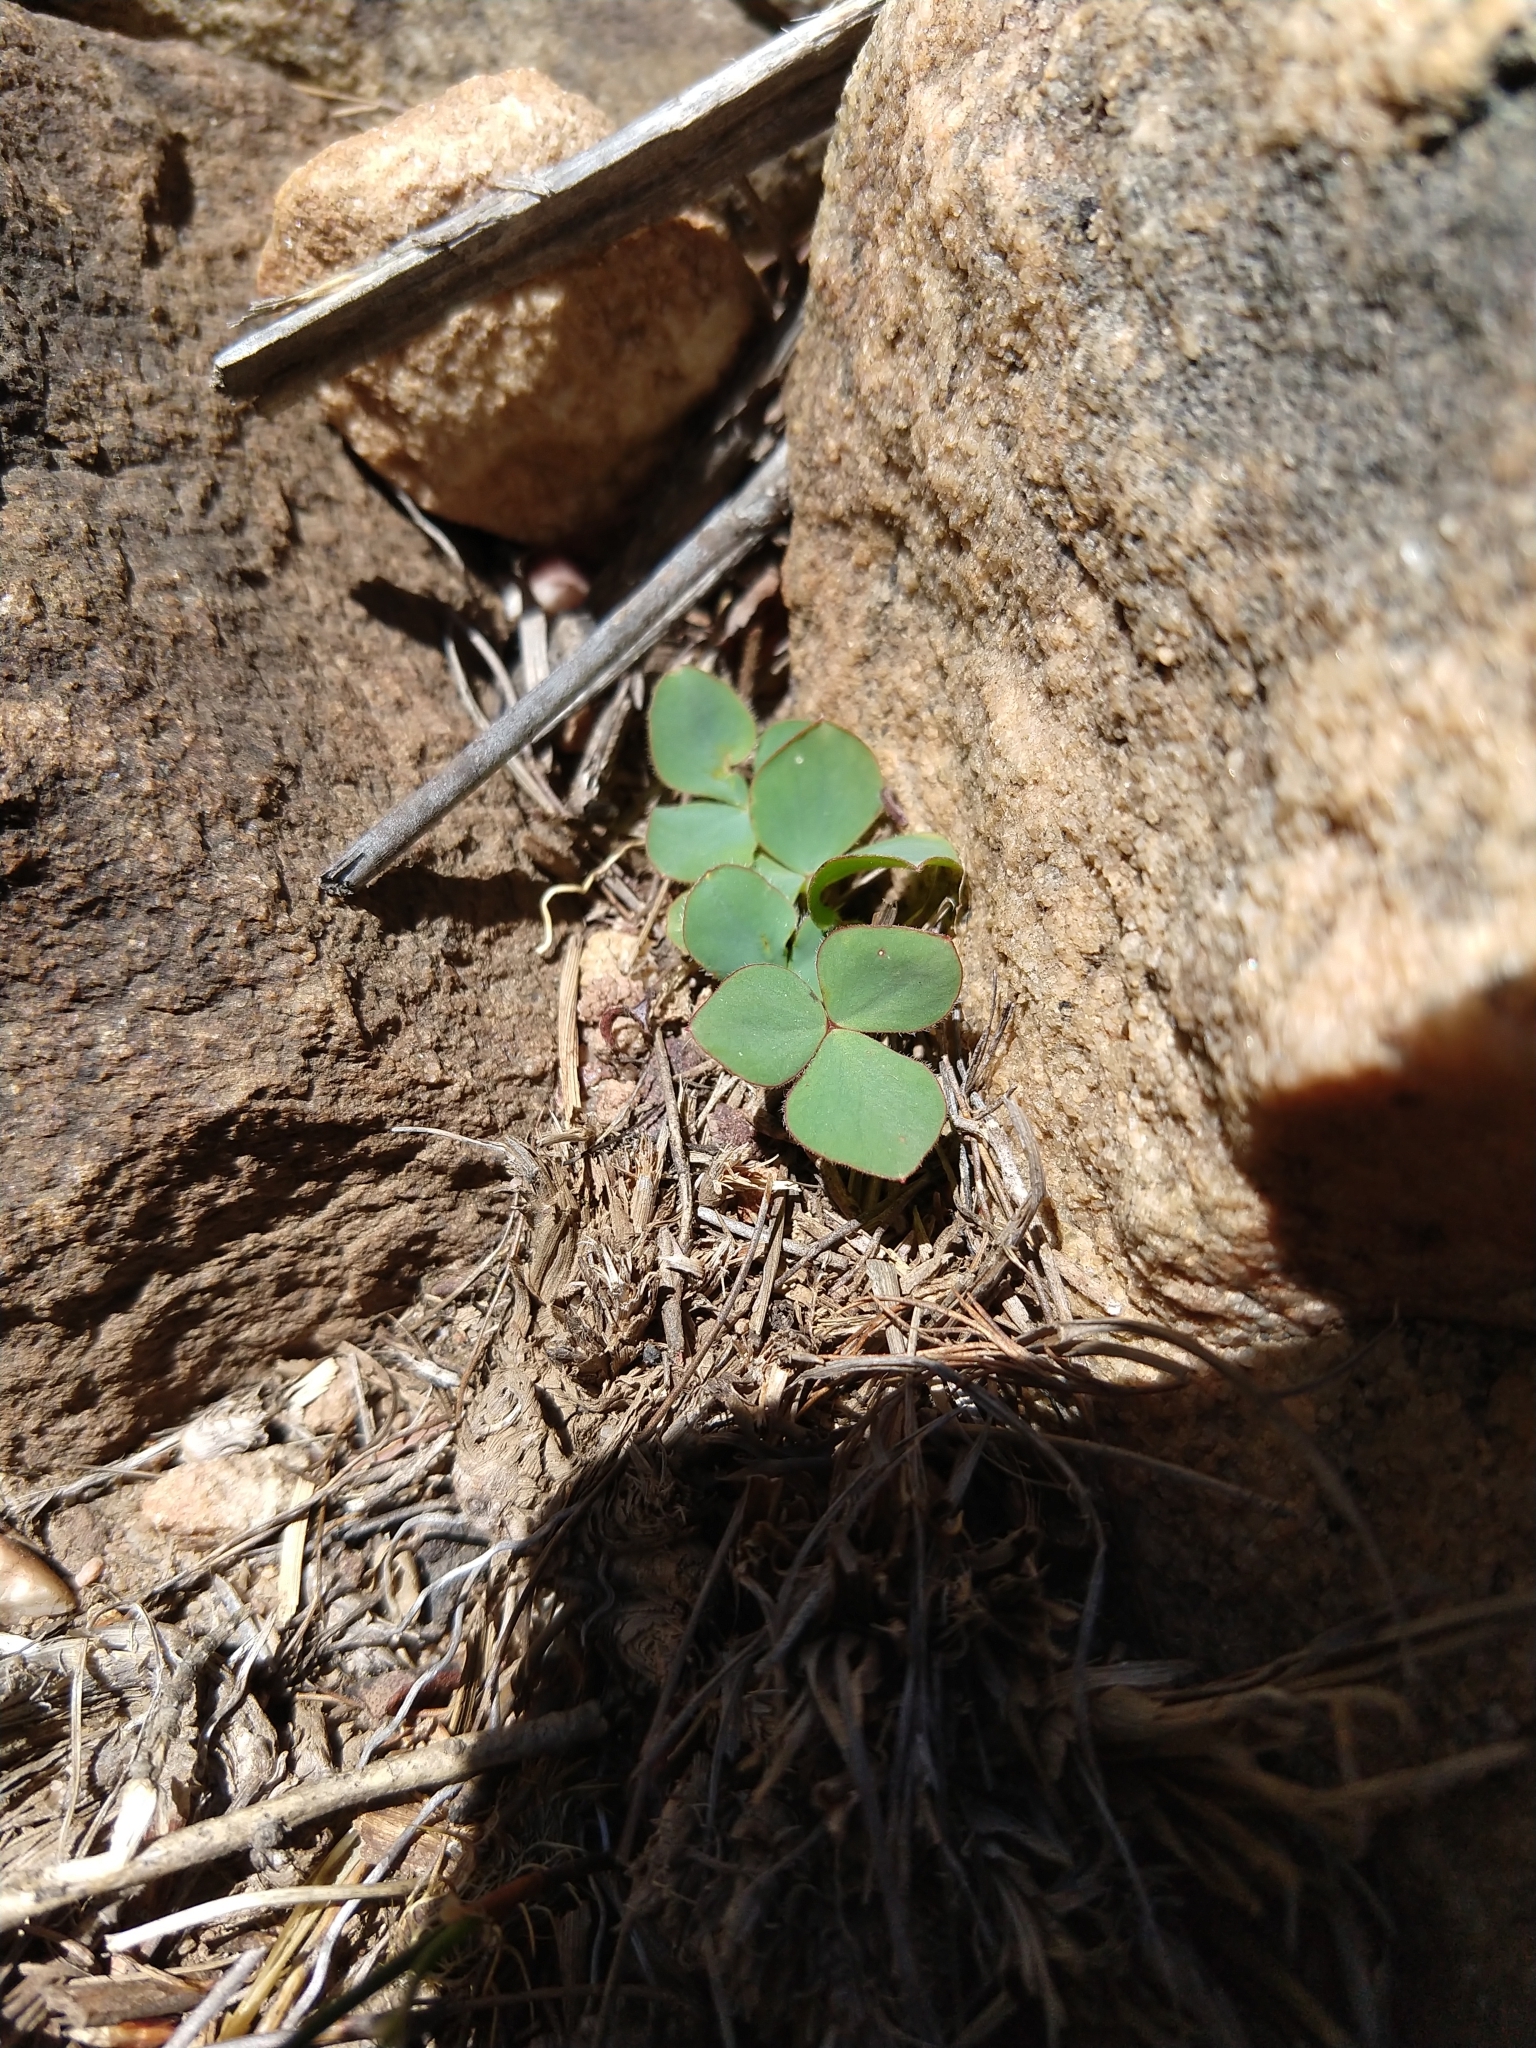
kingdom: Plantae
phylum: Tracheophyta
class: Magnoliopsida
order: Oxalidales
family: Oxalidaceae
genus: Oxalis
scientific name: Oxalis purpurea
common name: Purple woodsorrel
